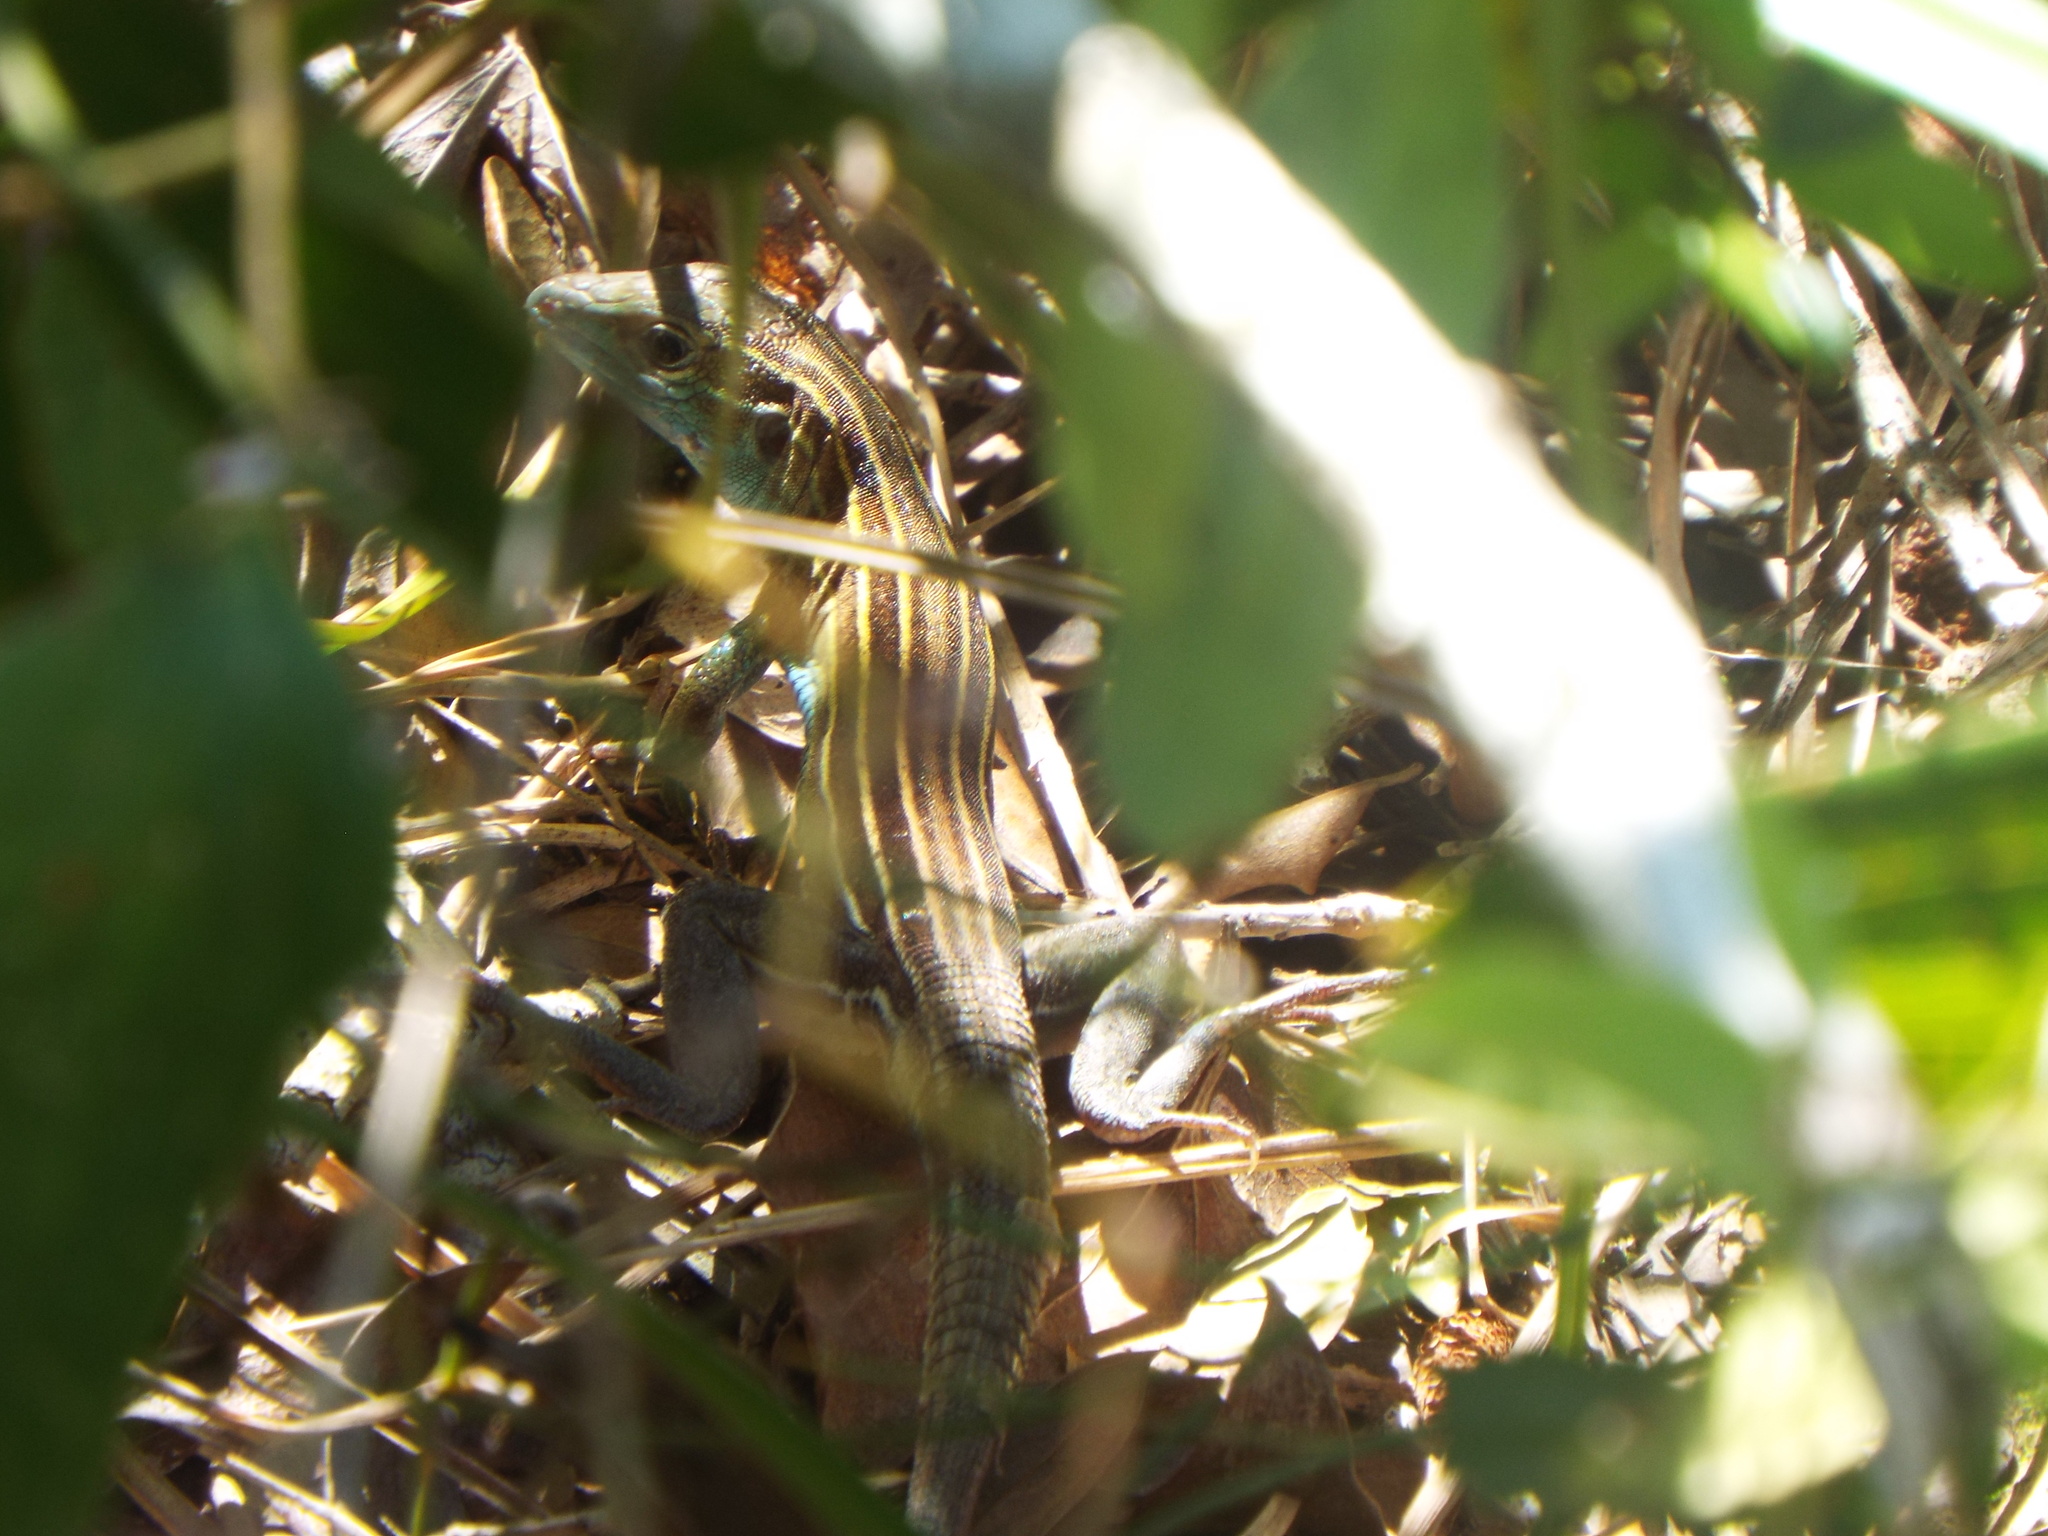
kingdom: Animalia
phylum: Chordata
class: Squamata
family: Teiidae
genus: Aspidoscelis
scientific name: Aspidoscelis sexlineatus
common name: Six-lined racerunner
